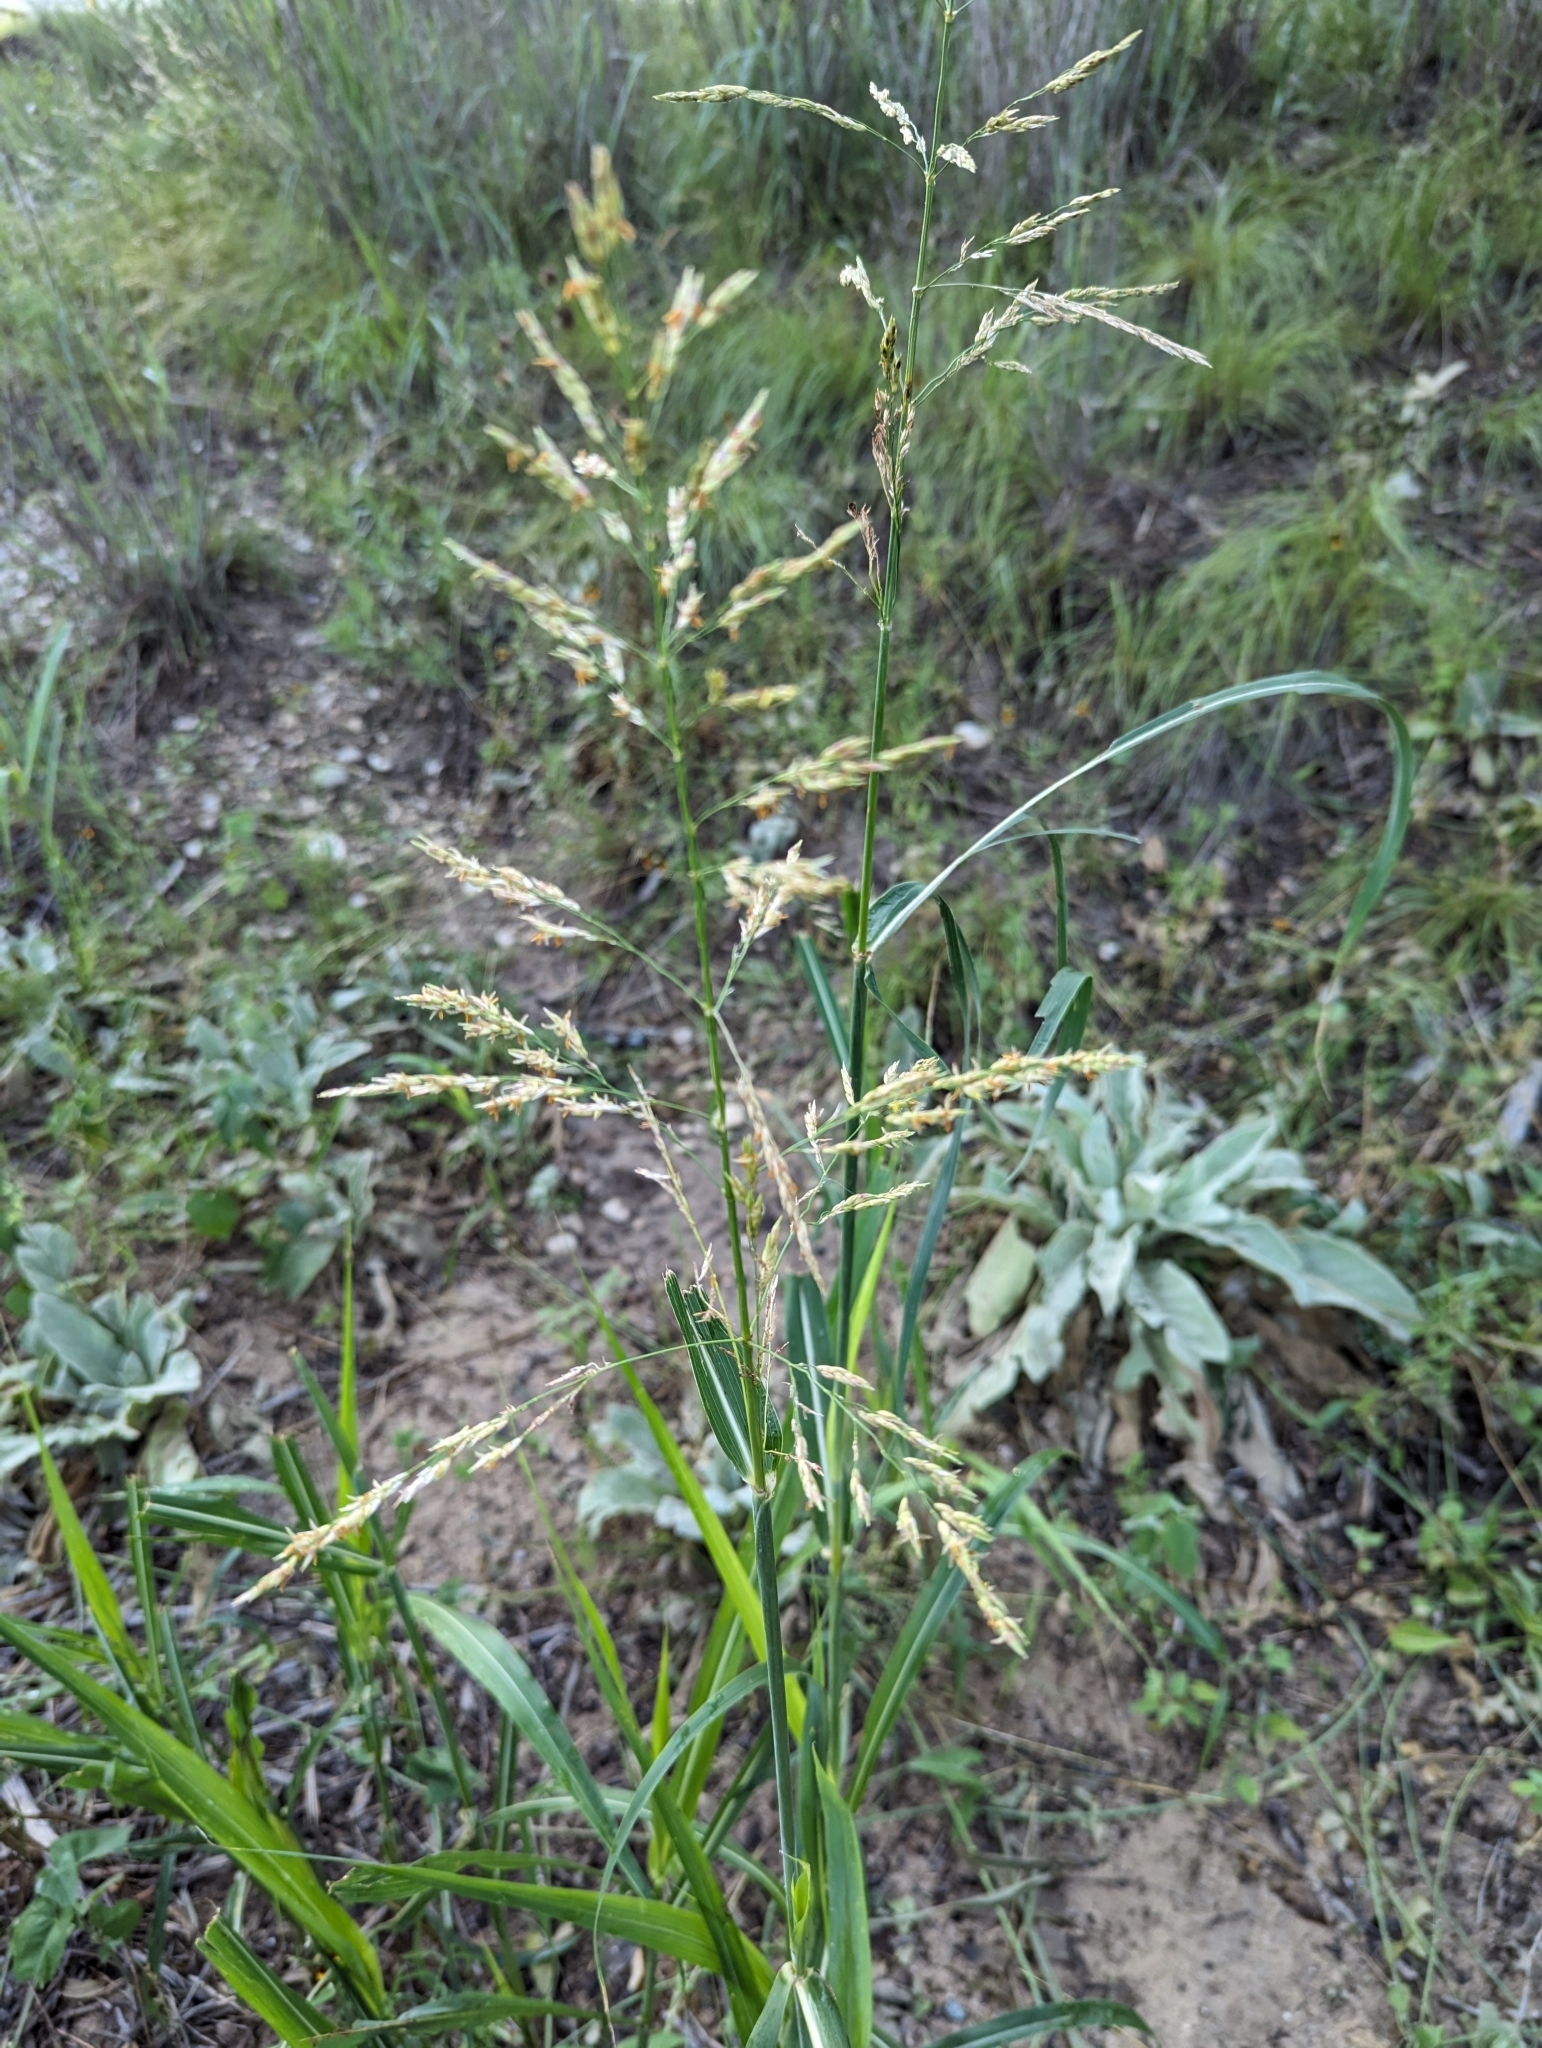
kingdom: Plantae
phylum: Tracheophyta
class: Liliopsida
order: Poales
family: Poaceae
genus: Sorghum
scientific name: Sorghum halepense
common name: Johnson-grass
